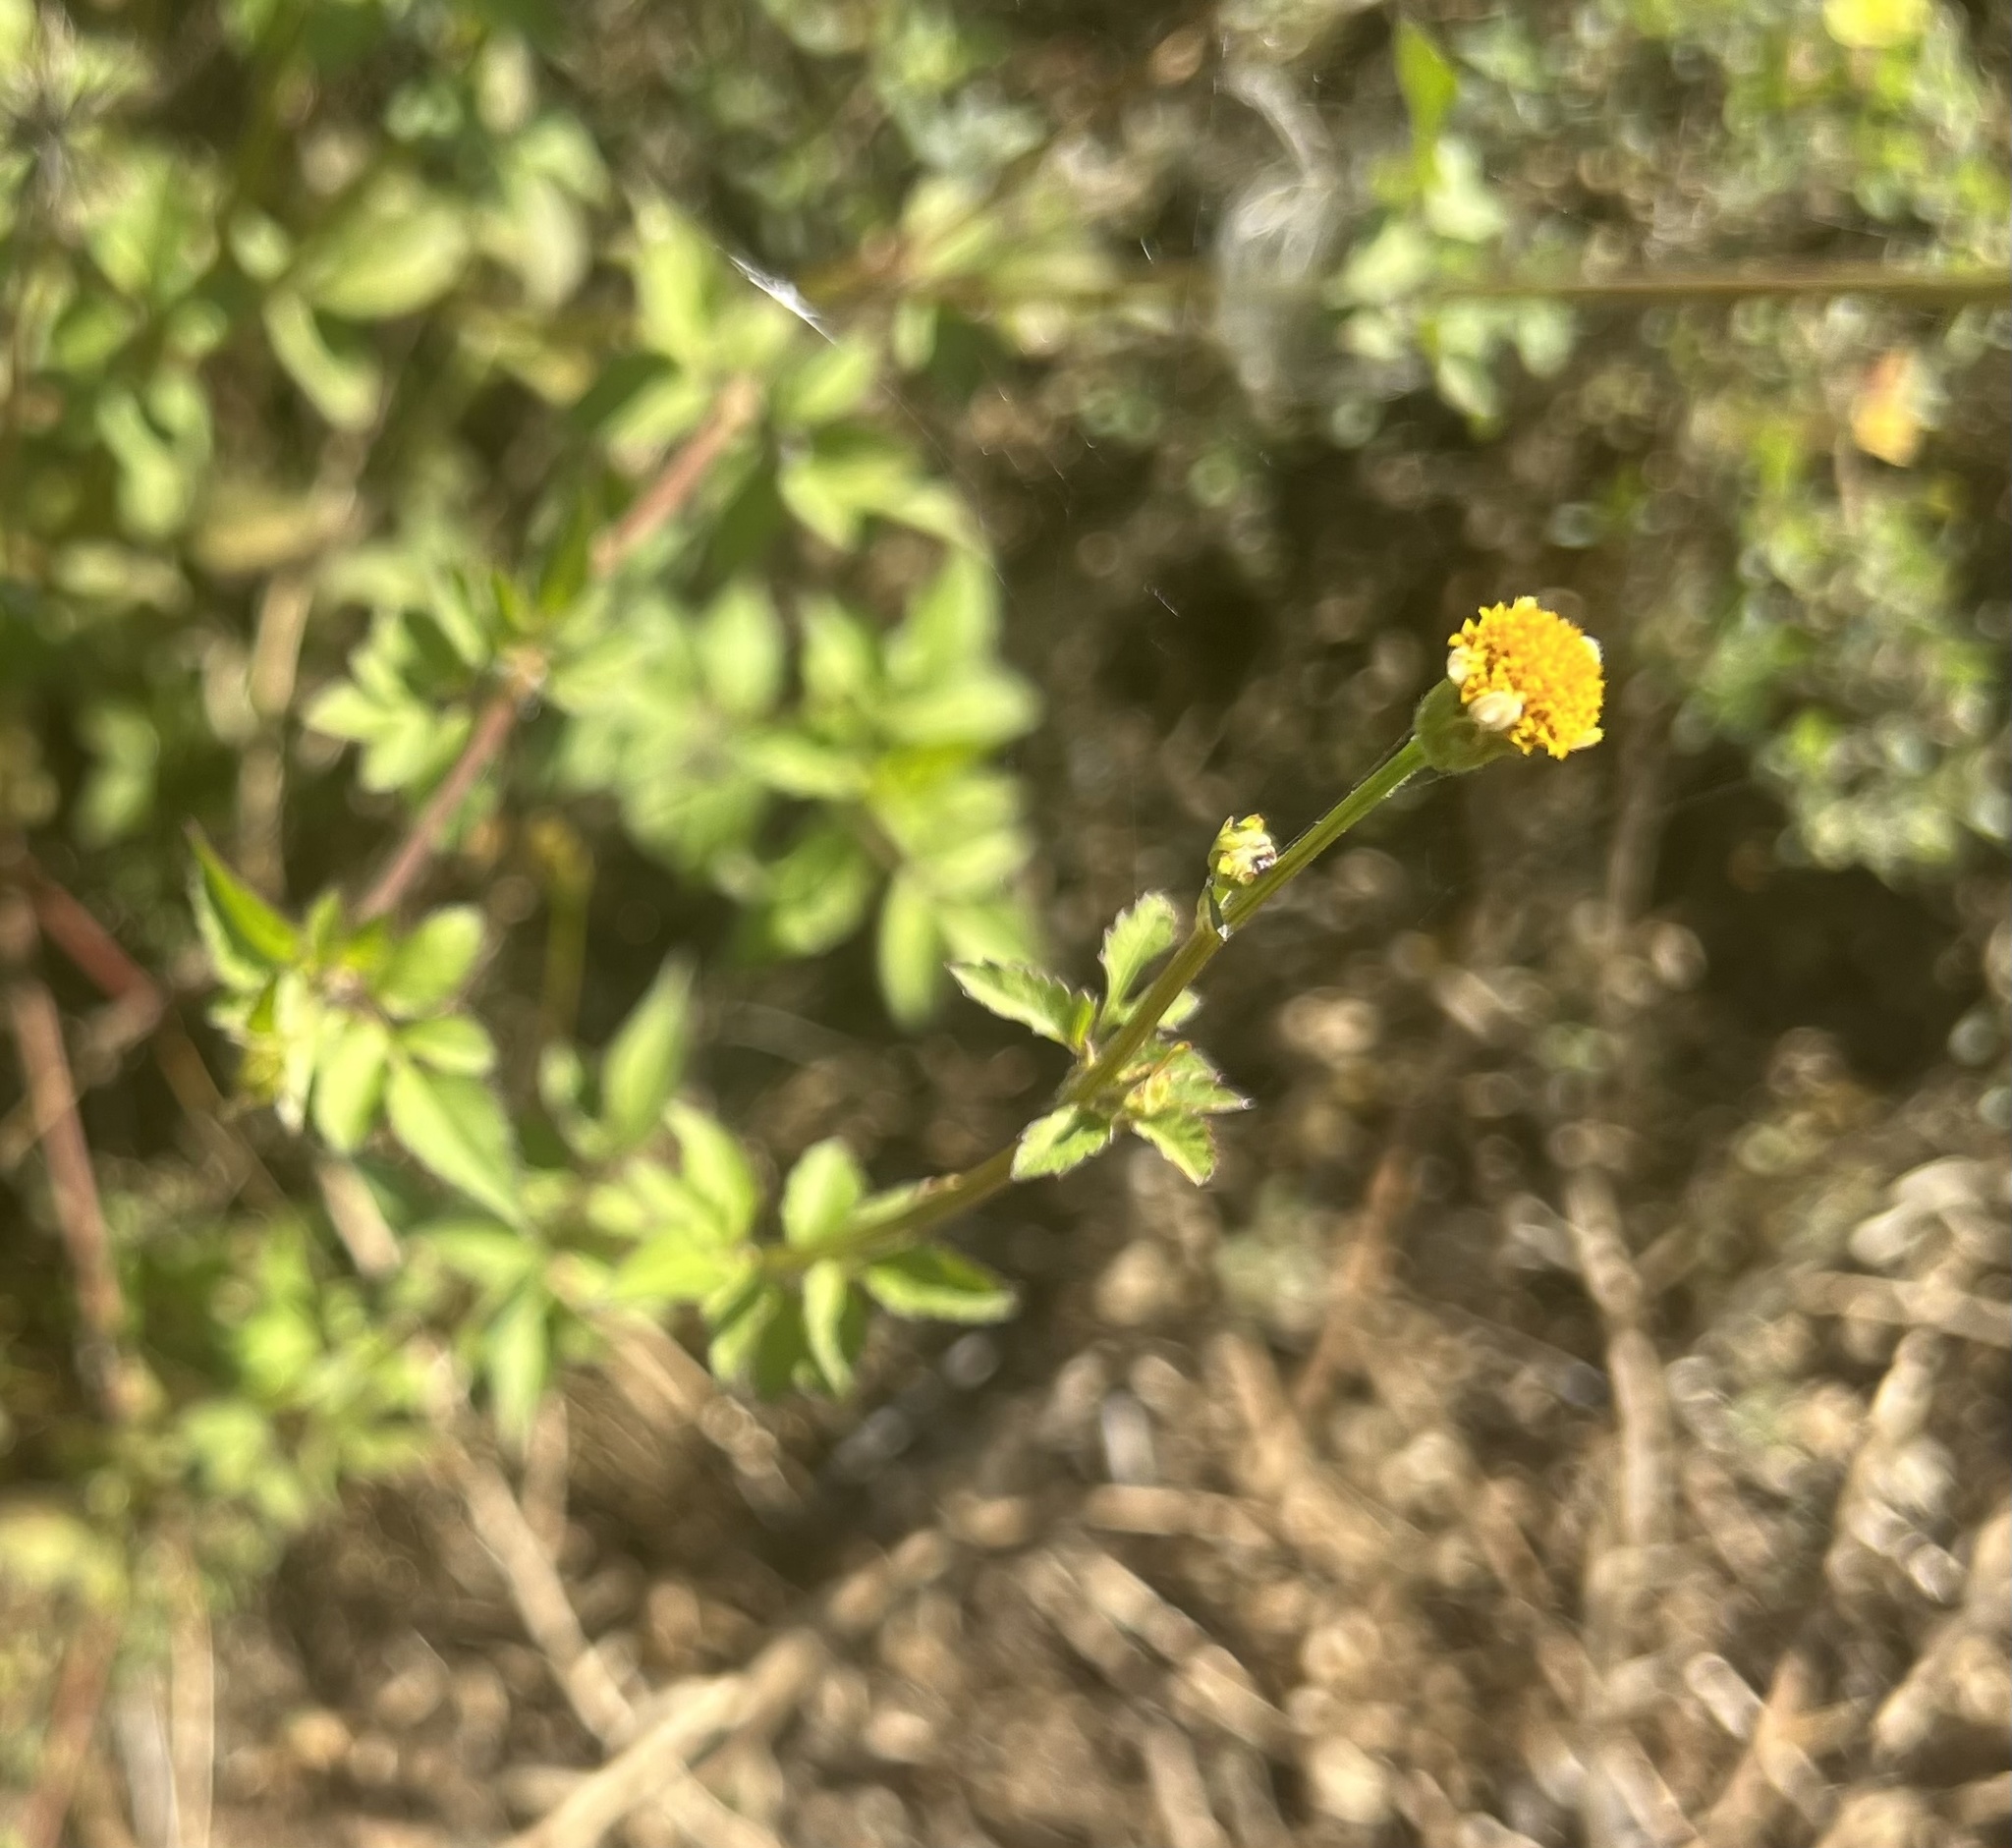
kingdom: Plantae
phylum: Tracheophyta
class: Magnoliopsida
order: Asterales
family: Asteraceae
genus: Bidens
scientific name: Bidens pilosa
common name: Black-jack
